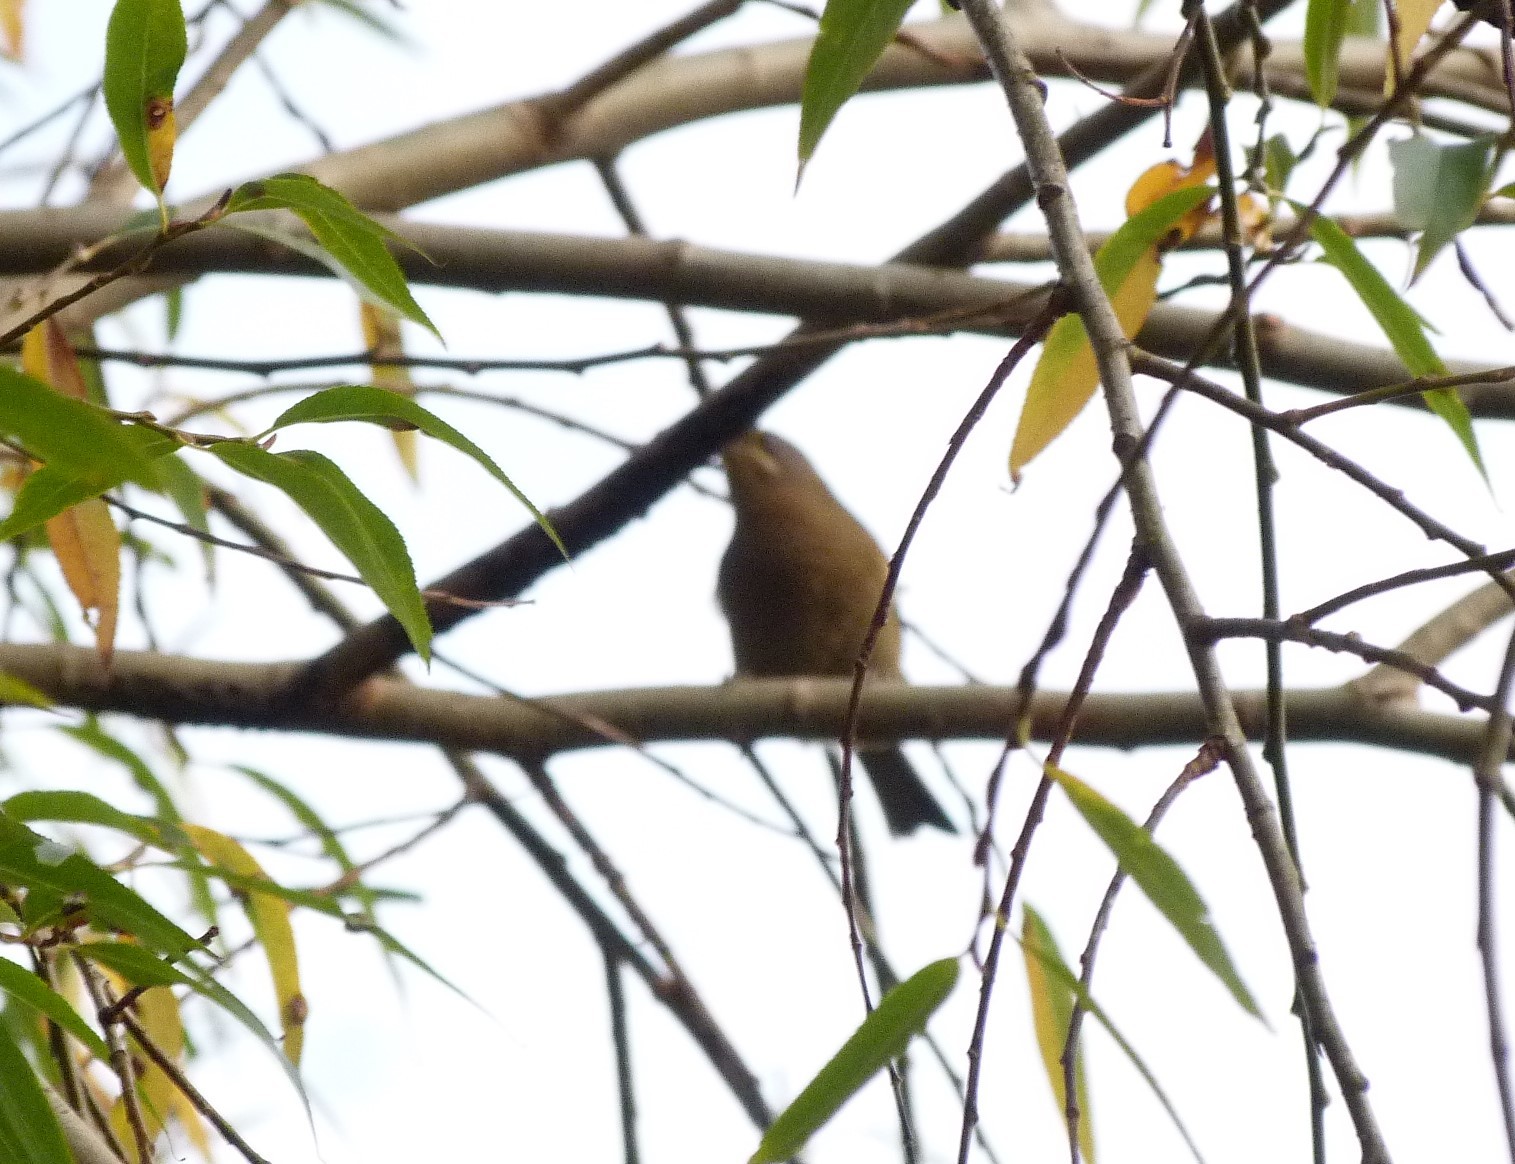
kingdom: Animalia
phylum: Chordata
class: Aves
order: Passeriformes
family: Meliphagidae
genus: Anthornis
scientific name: Anthornis melanura
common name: New zealand bellbird
